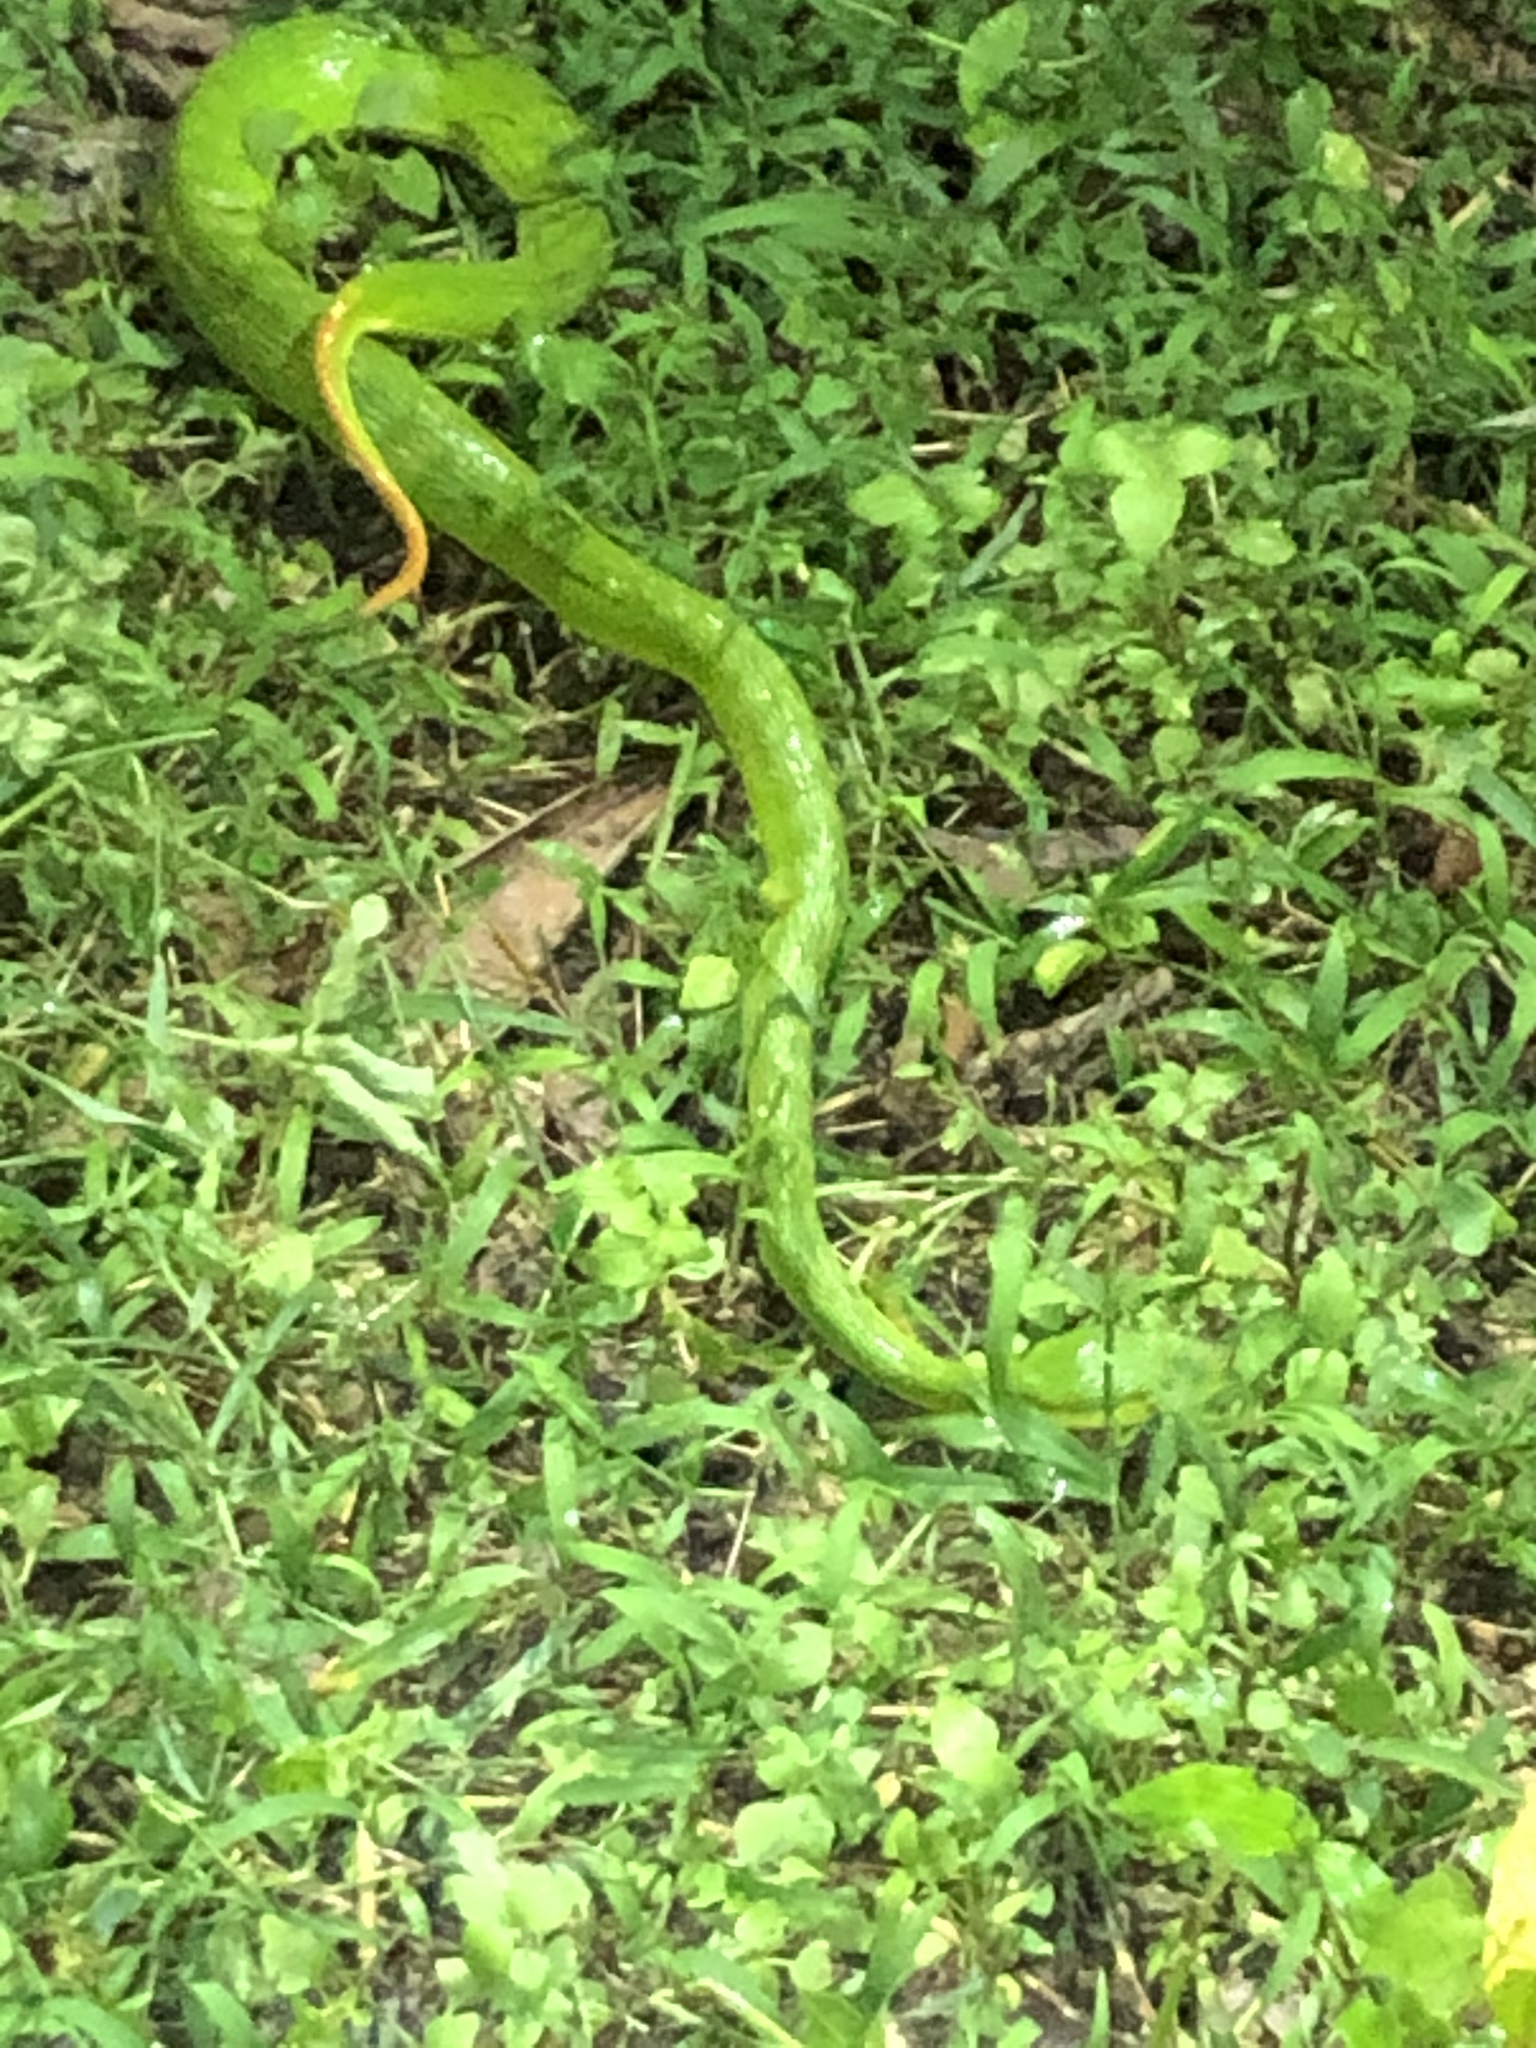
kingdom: Animalia
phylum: Chordata
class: Squamata
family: Viperidae
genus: Trimeresurus
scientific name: Trimeresurus albolabris
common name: White-lipped pitviper
